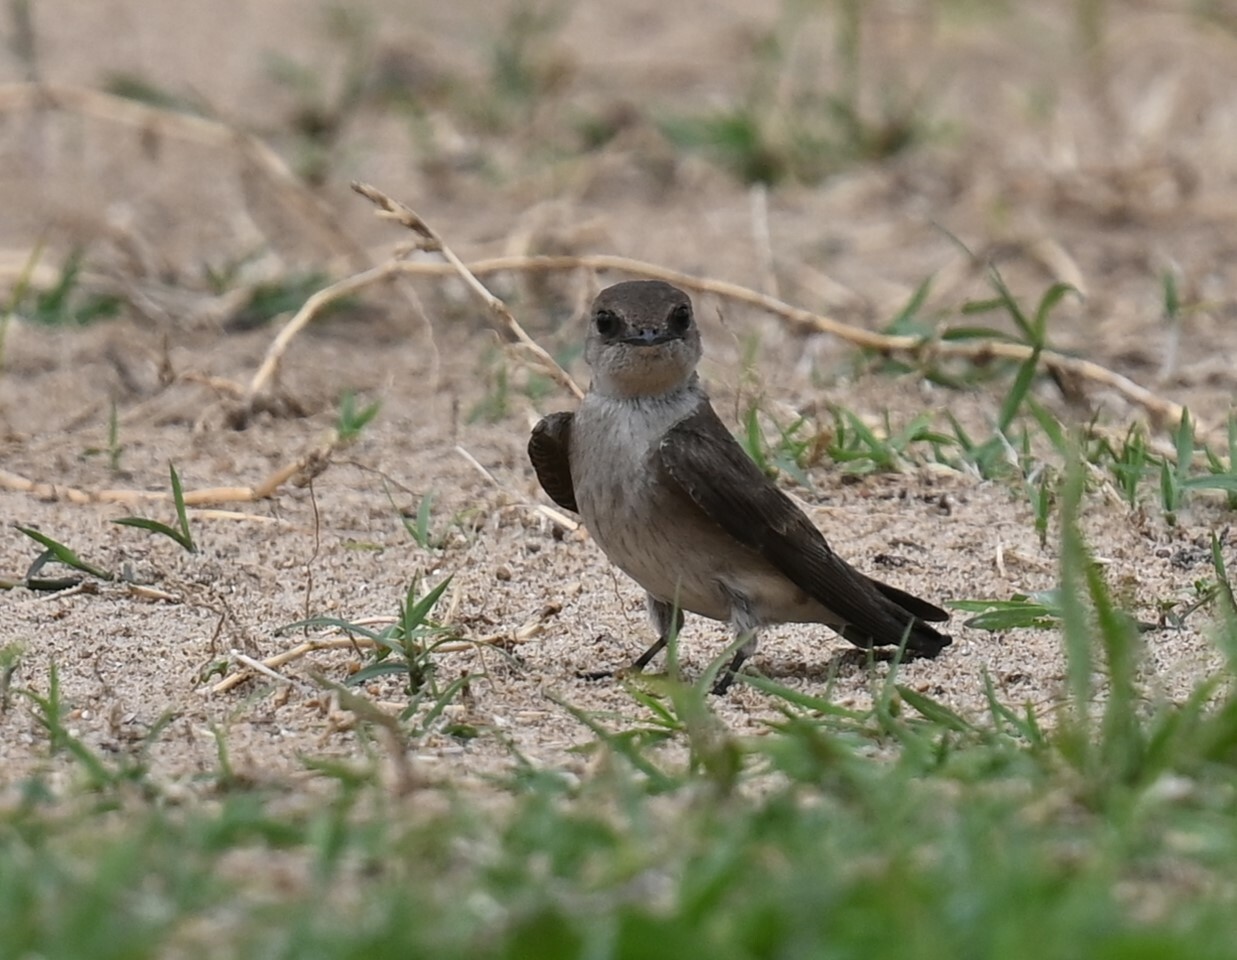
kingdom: Animalia
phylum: Chordata
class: Aves
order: Passeriformes
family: Hirundinidae
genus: Stelgidopteryx
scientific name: Stelgidopteryx serripennis
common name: Northern rough-winged swallow
